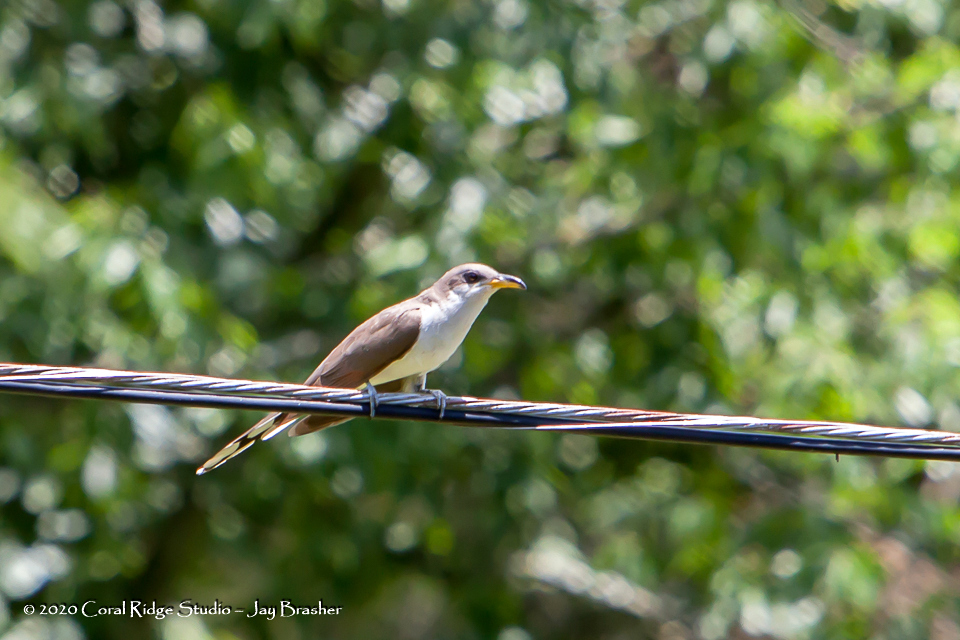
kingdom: Animalia
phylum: Chordata
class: Aves
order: Cuculiformes
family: Cuculidae
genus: Coccyzus
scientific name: Coccyzus americanus
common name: Yellow-billed cuckoo
